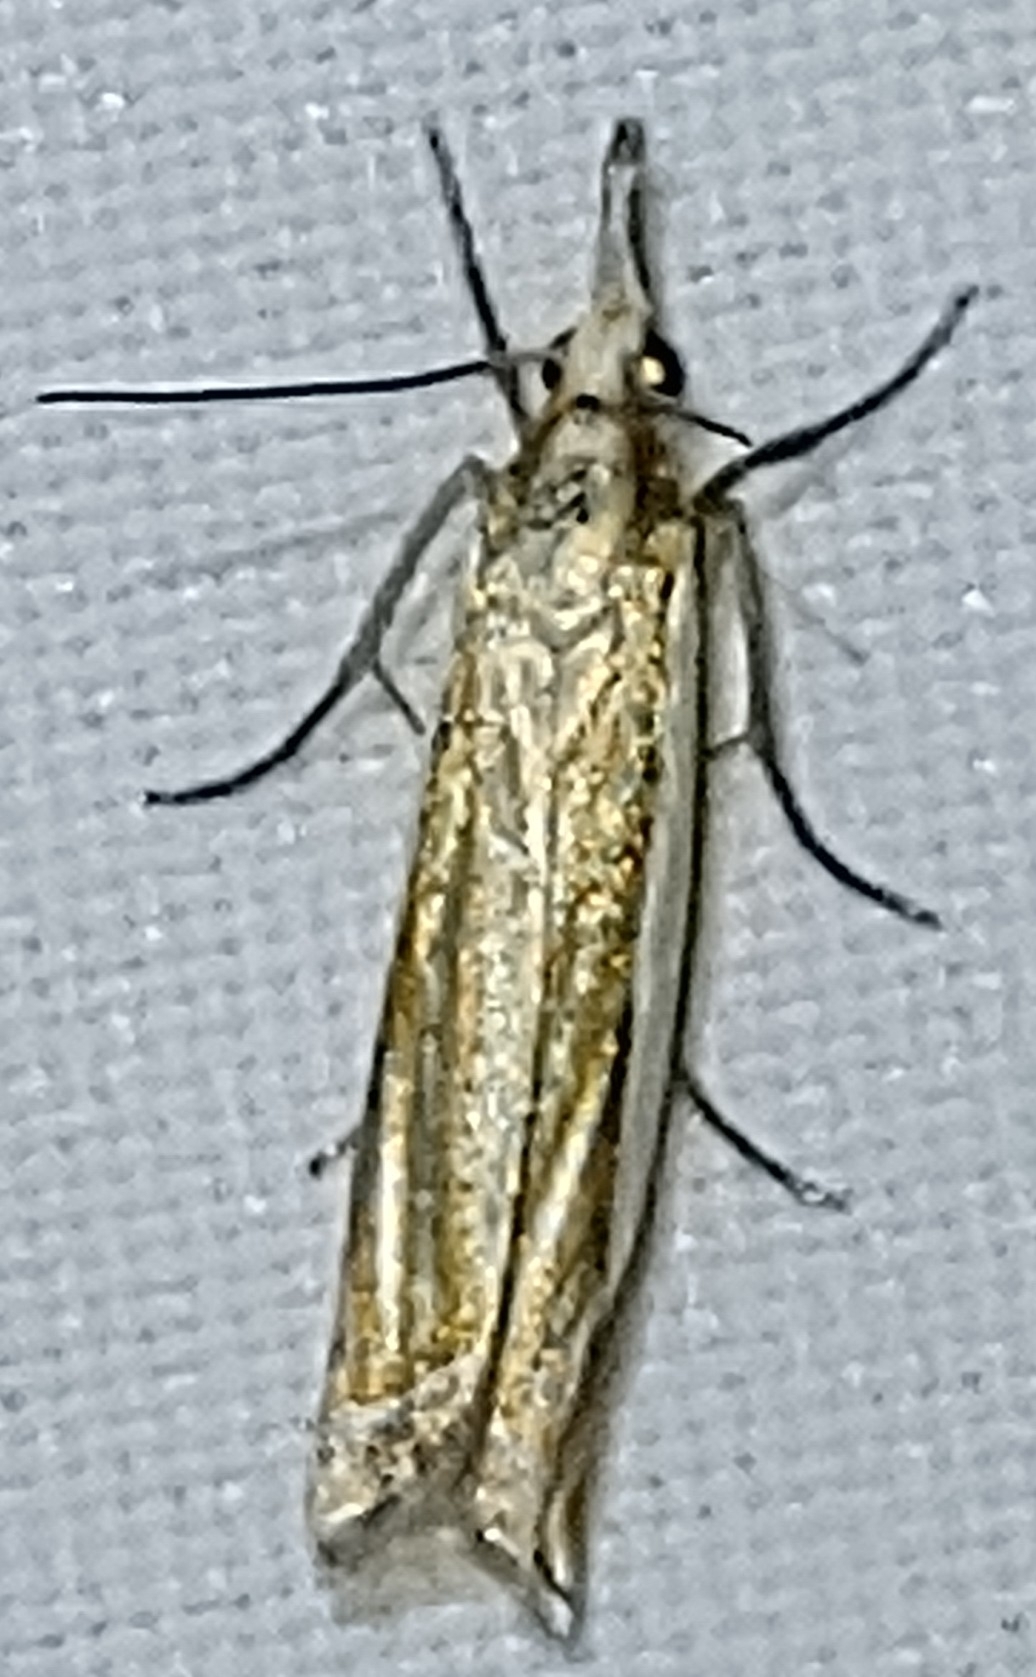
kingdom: Animalia
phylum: Arthropoda
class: Insecta
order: Lepidoptera
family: Crambidae
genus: Crambus
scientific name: Crambus pascuella
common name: Inlaid grass-veneer
